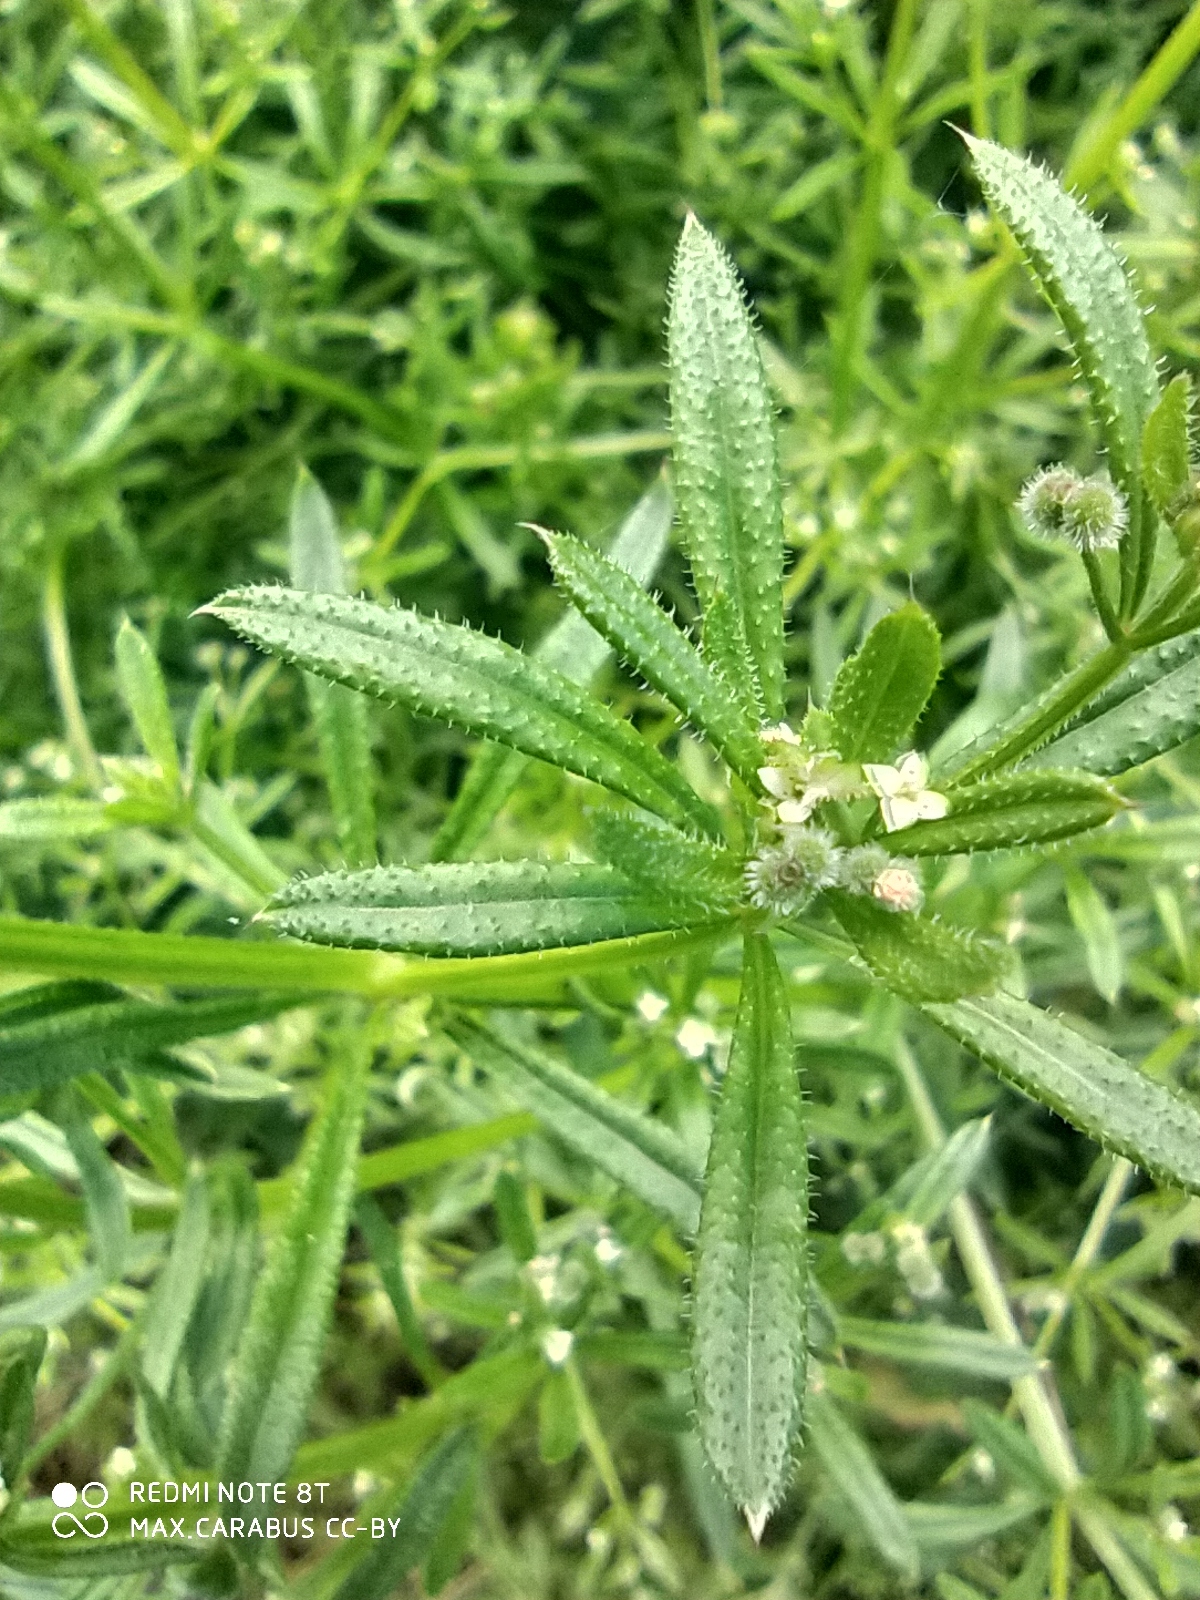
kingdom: Plantae
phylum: Tracheophyta
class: Magnoliopsida
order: Gentianales
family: Rubiaceae
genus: Galium
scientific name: Galium aparine
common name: Cleavers
